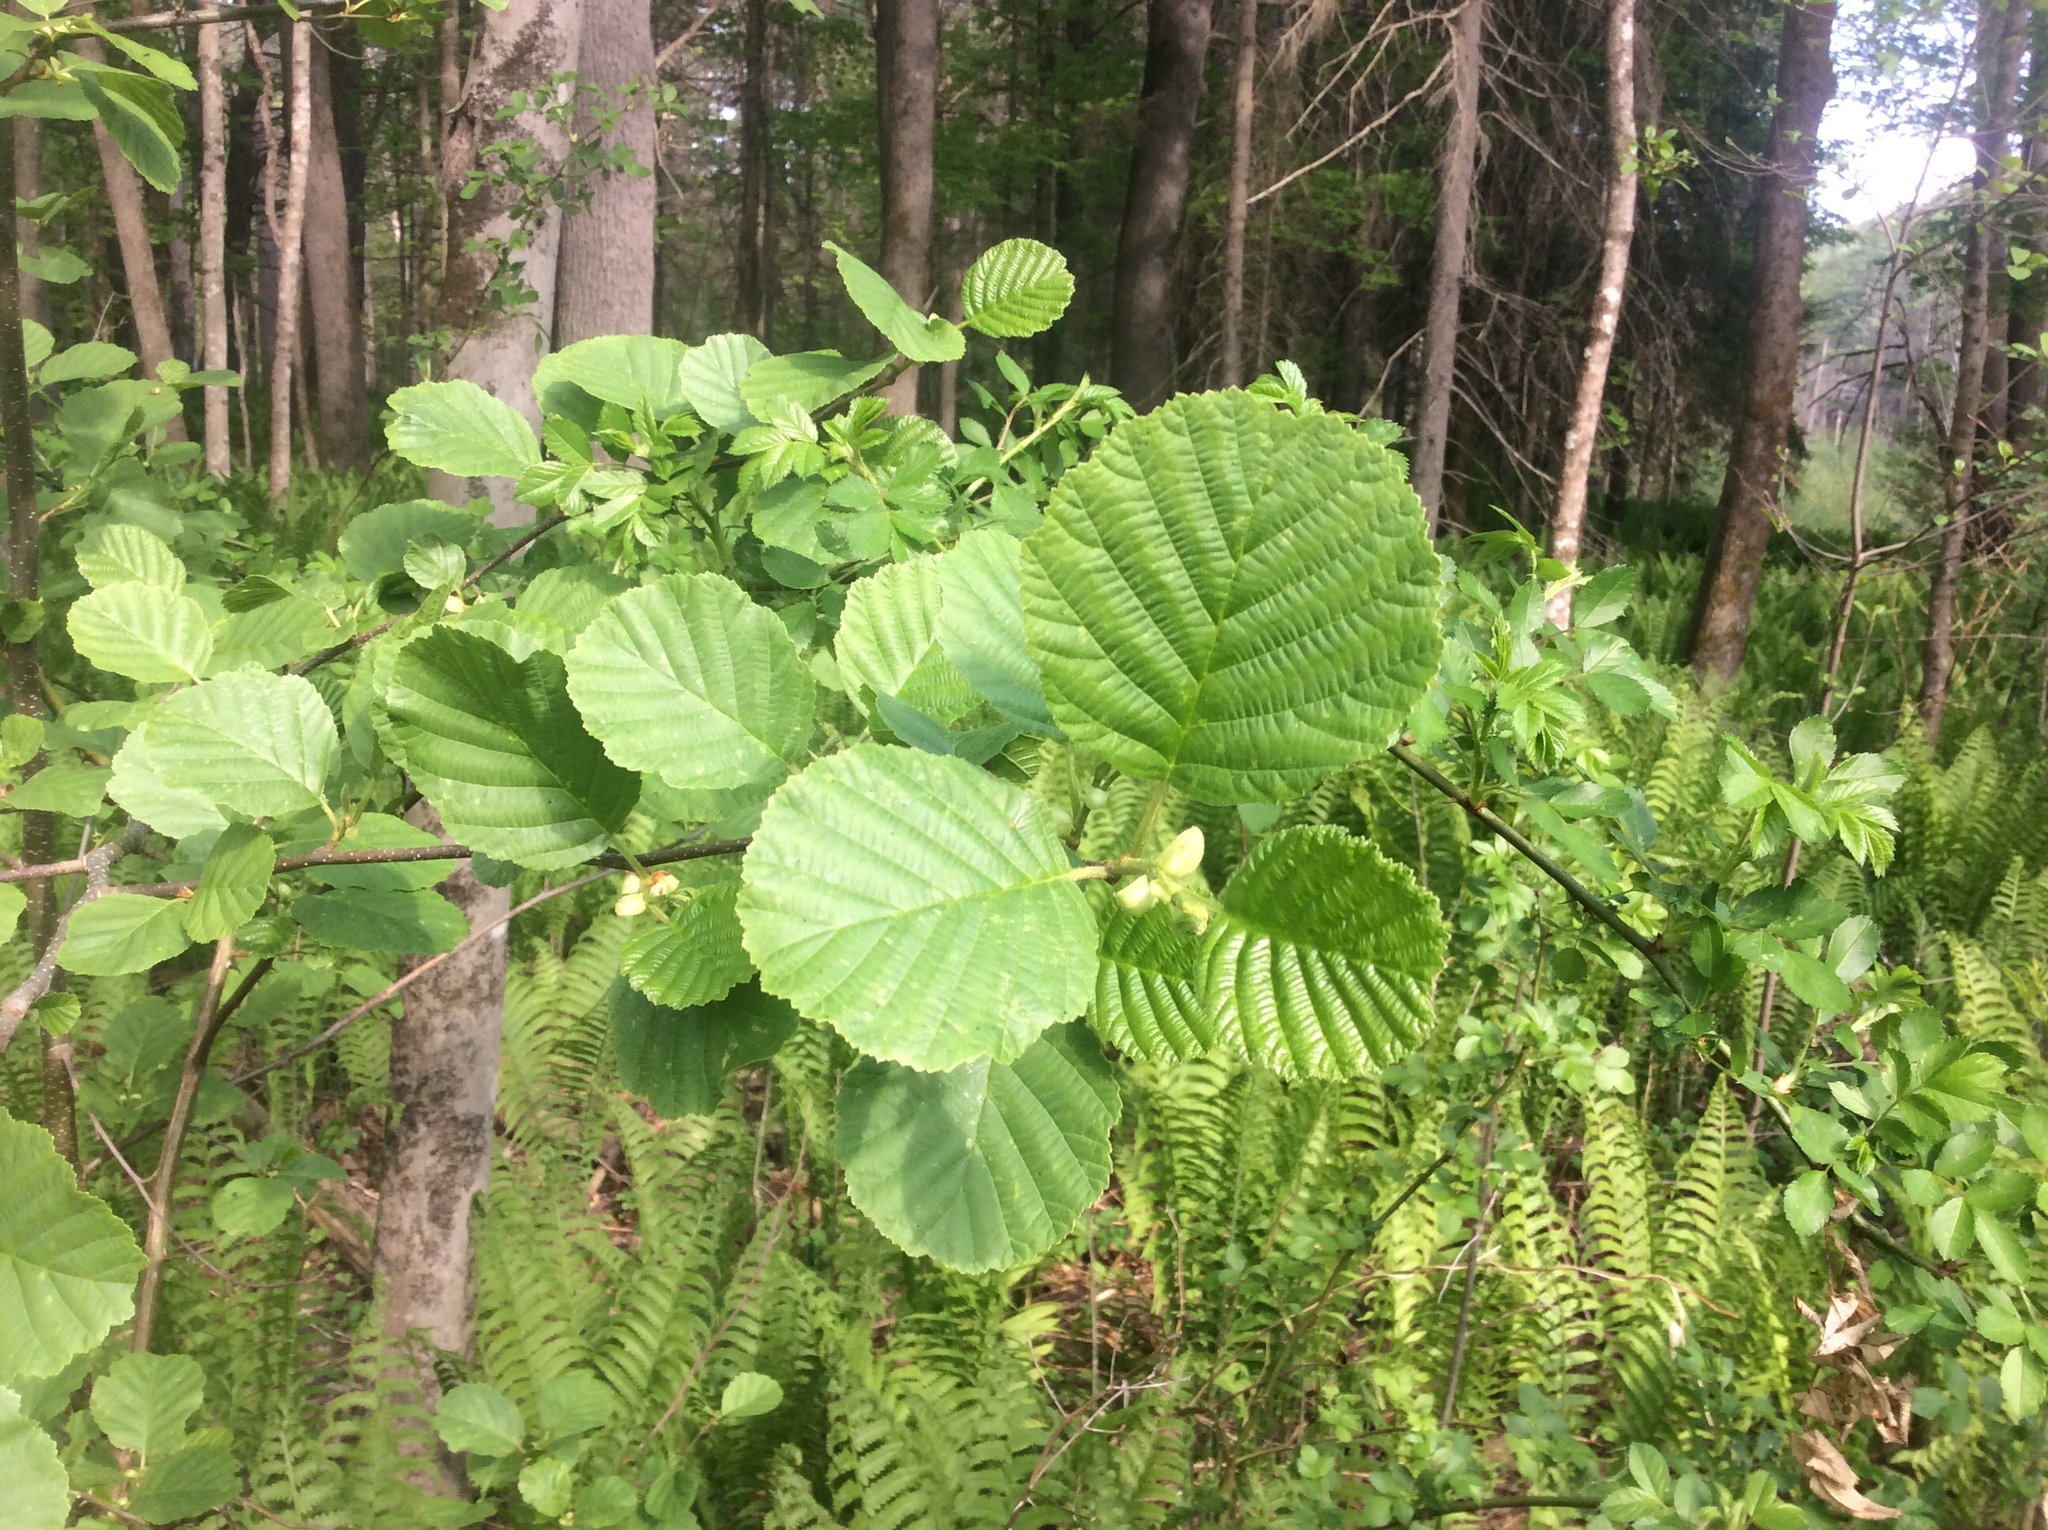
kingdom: Plantae
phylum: Tracheophyta
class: Magnoliopsida
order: Fagales
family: Betulaceae
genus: Alnus
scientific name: Alnus glutinosa
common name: Black alder
